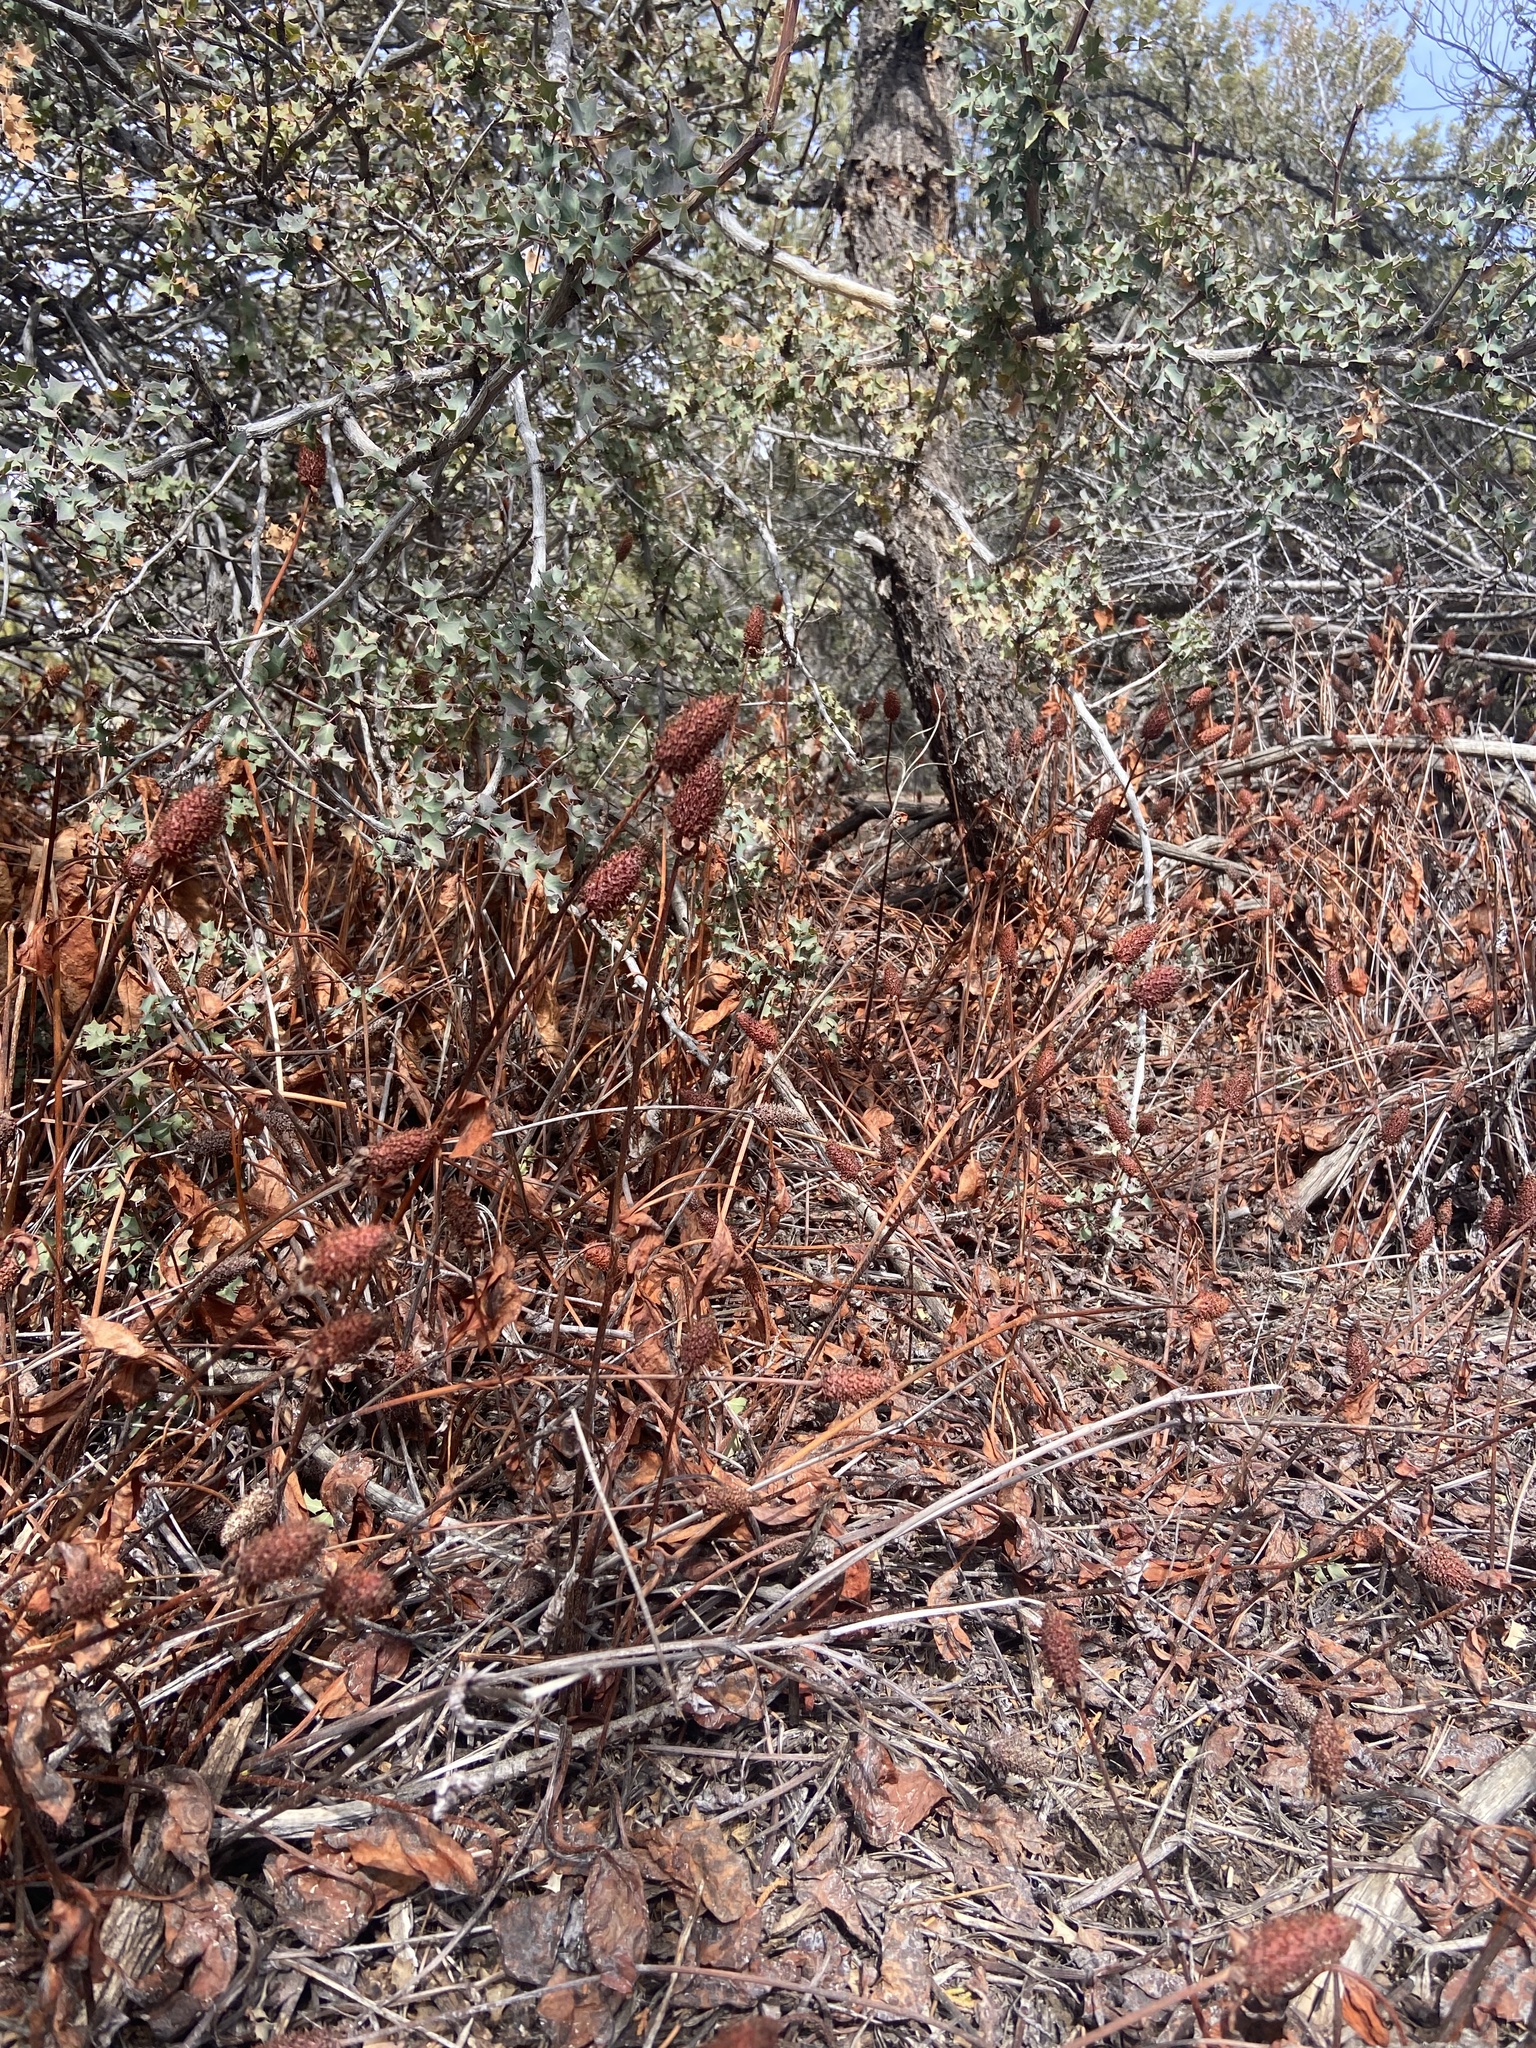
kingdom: Plantae
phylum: Tracheophyta
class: Magnoliopsida
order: Piperales
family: Saururaceae
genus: Anemopsis
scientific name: Anemopsis californica
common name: Apache-beads
